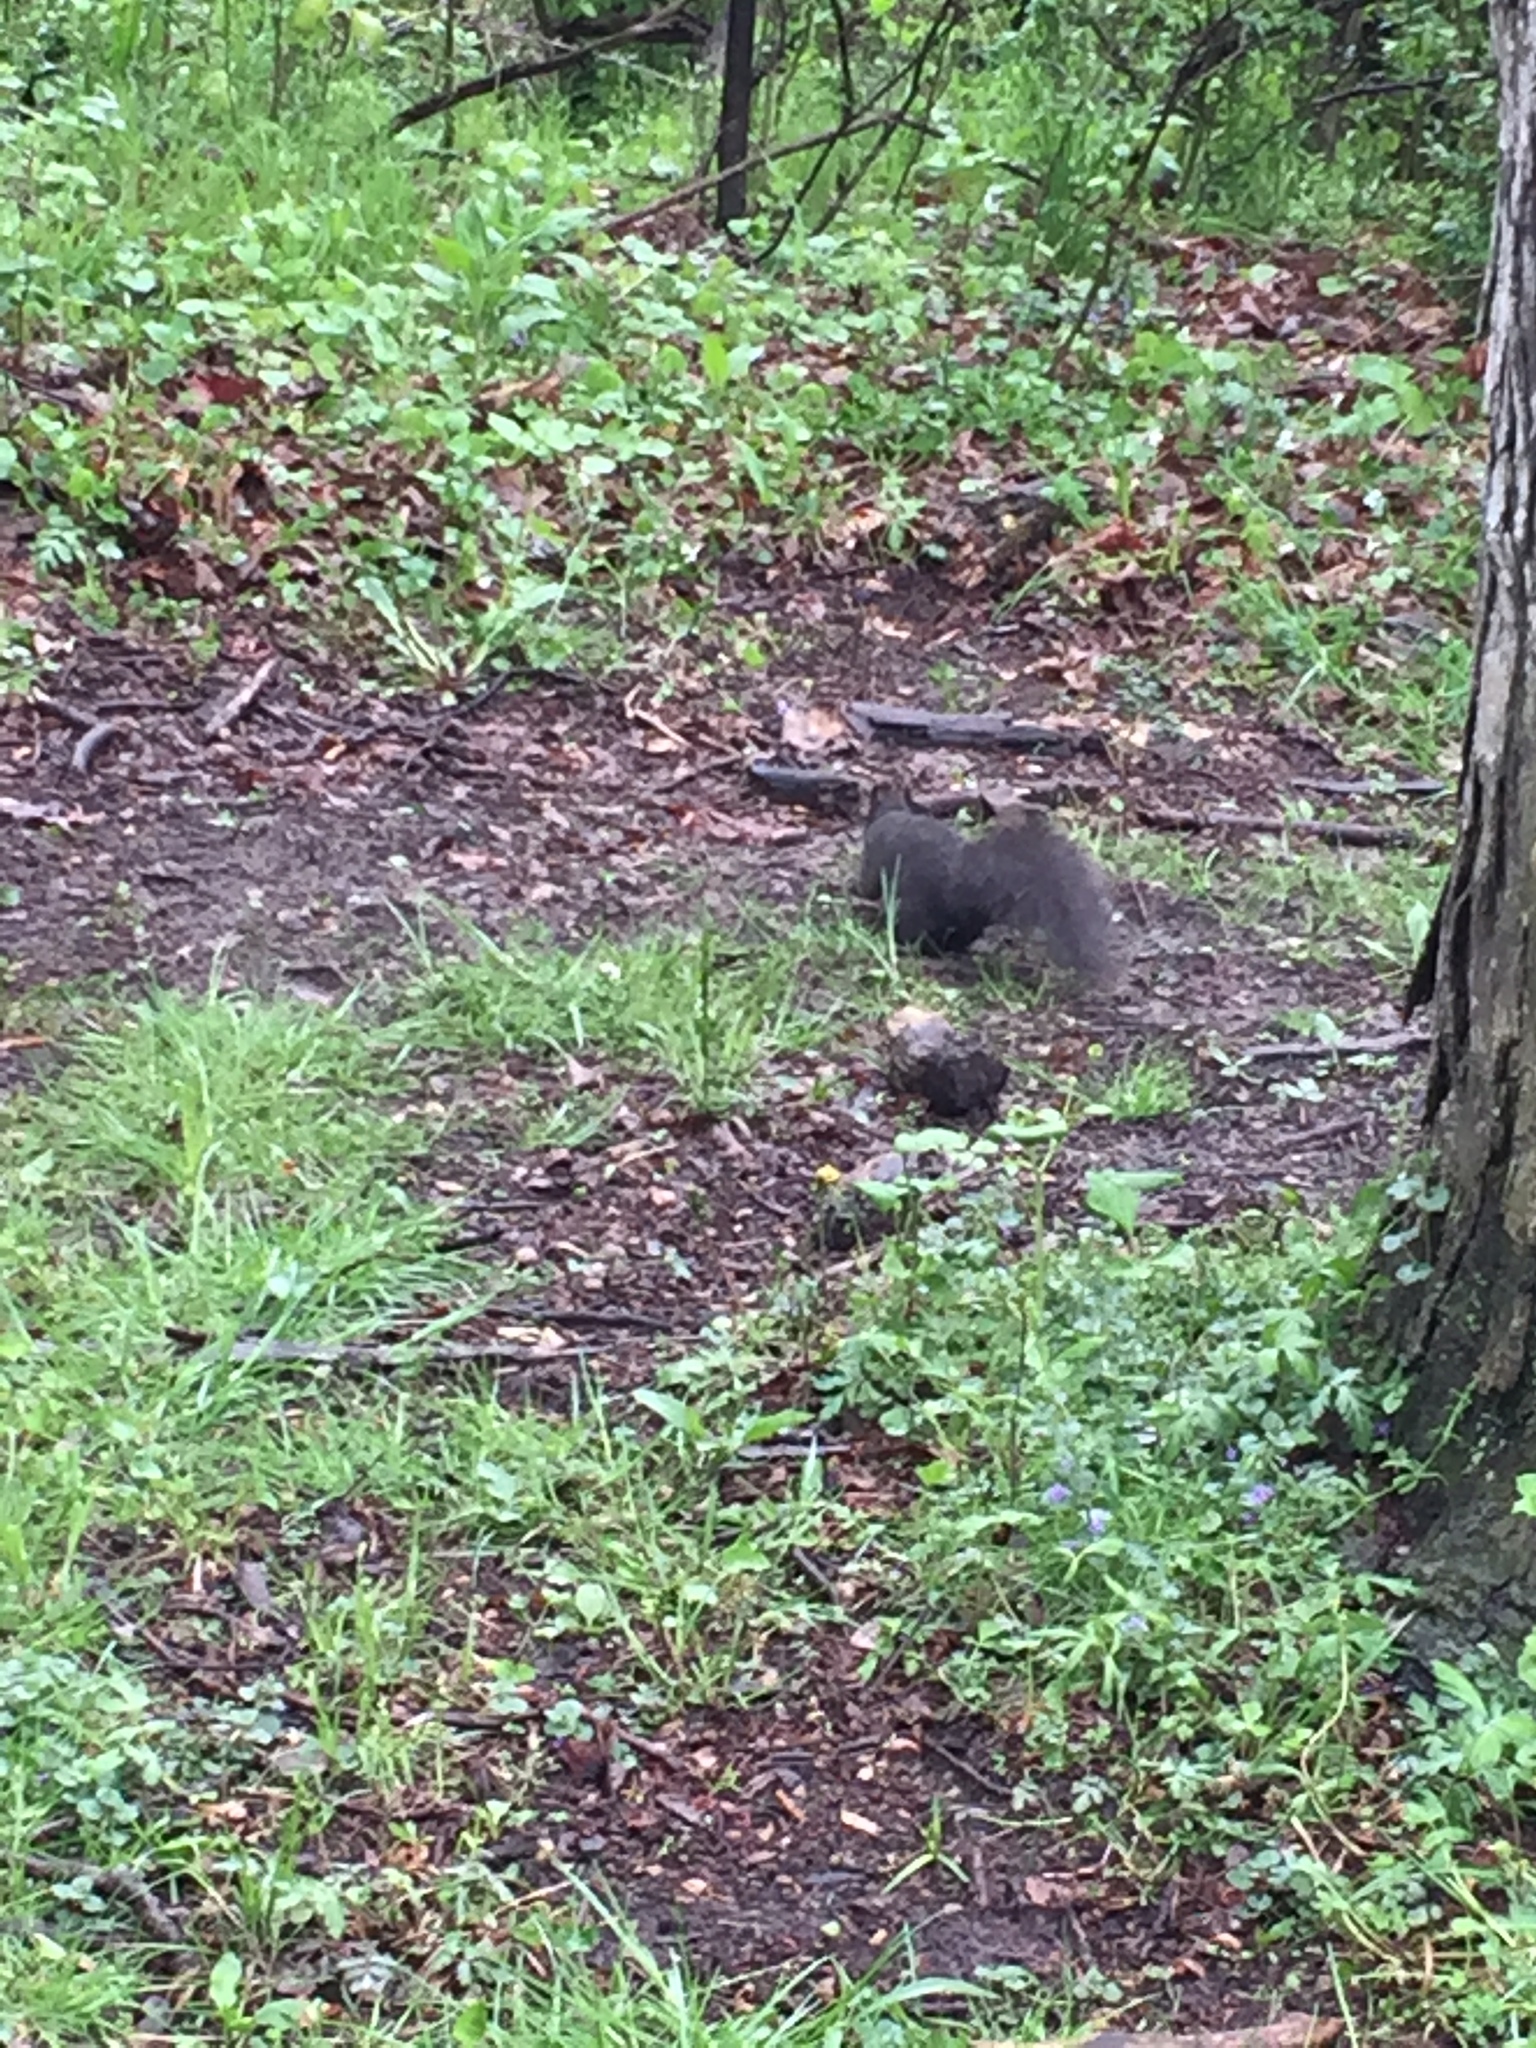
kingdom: Animalia
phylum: Chordata
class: Mammalia
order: Rodentia
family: Sciuridae
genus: Sciurus
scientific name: Sciurus carolinensis
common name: Eastern gray squirrel
